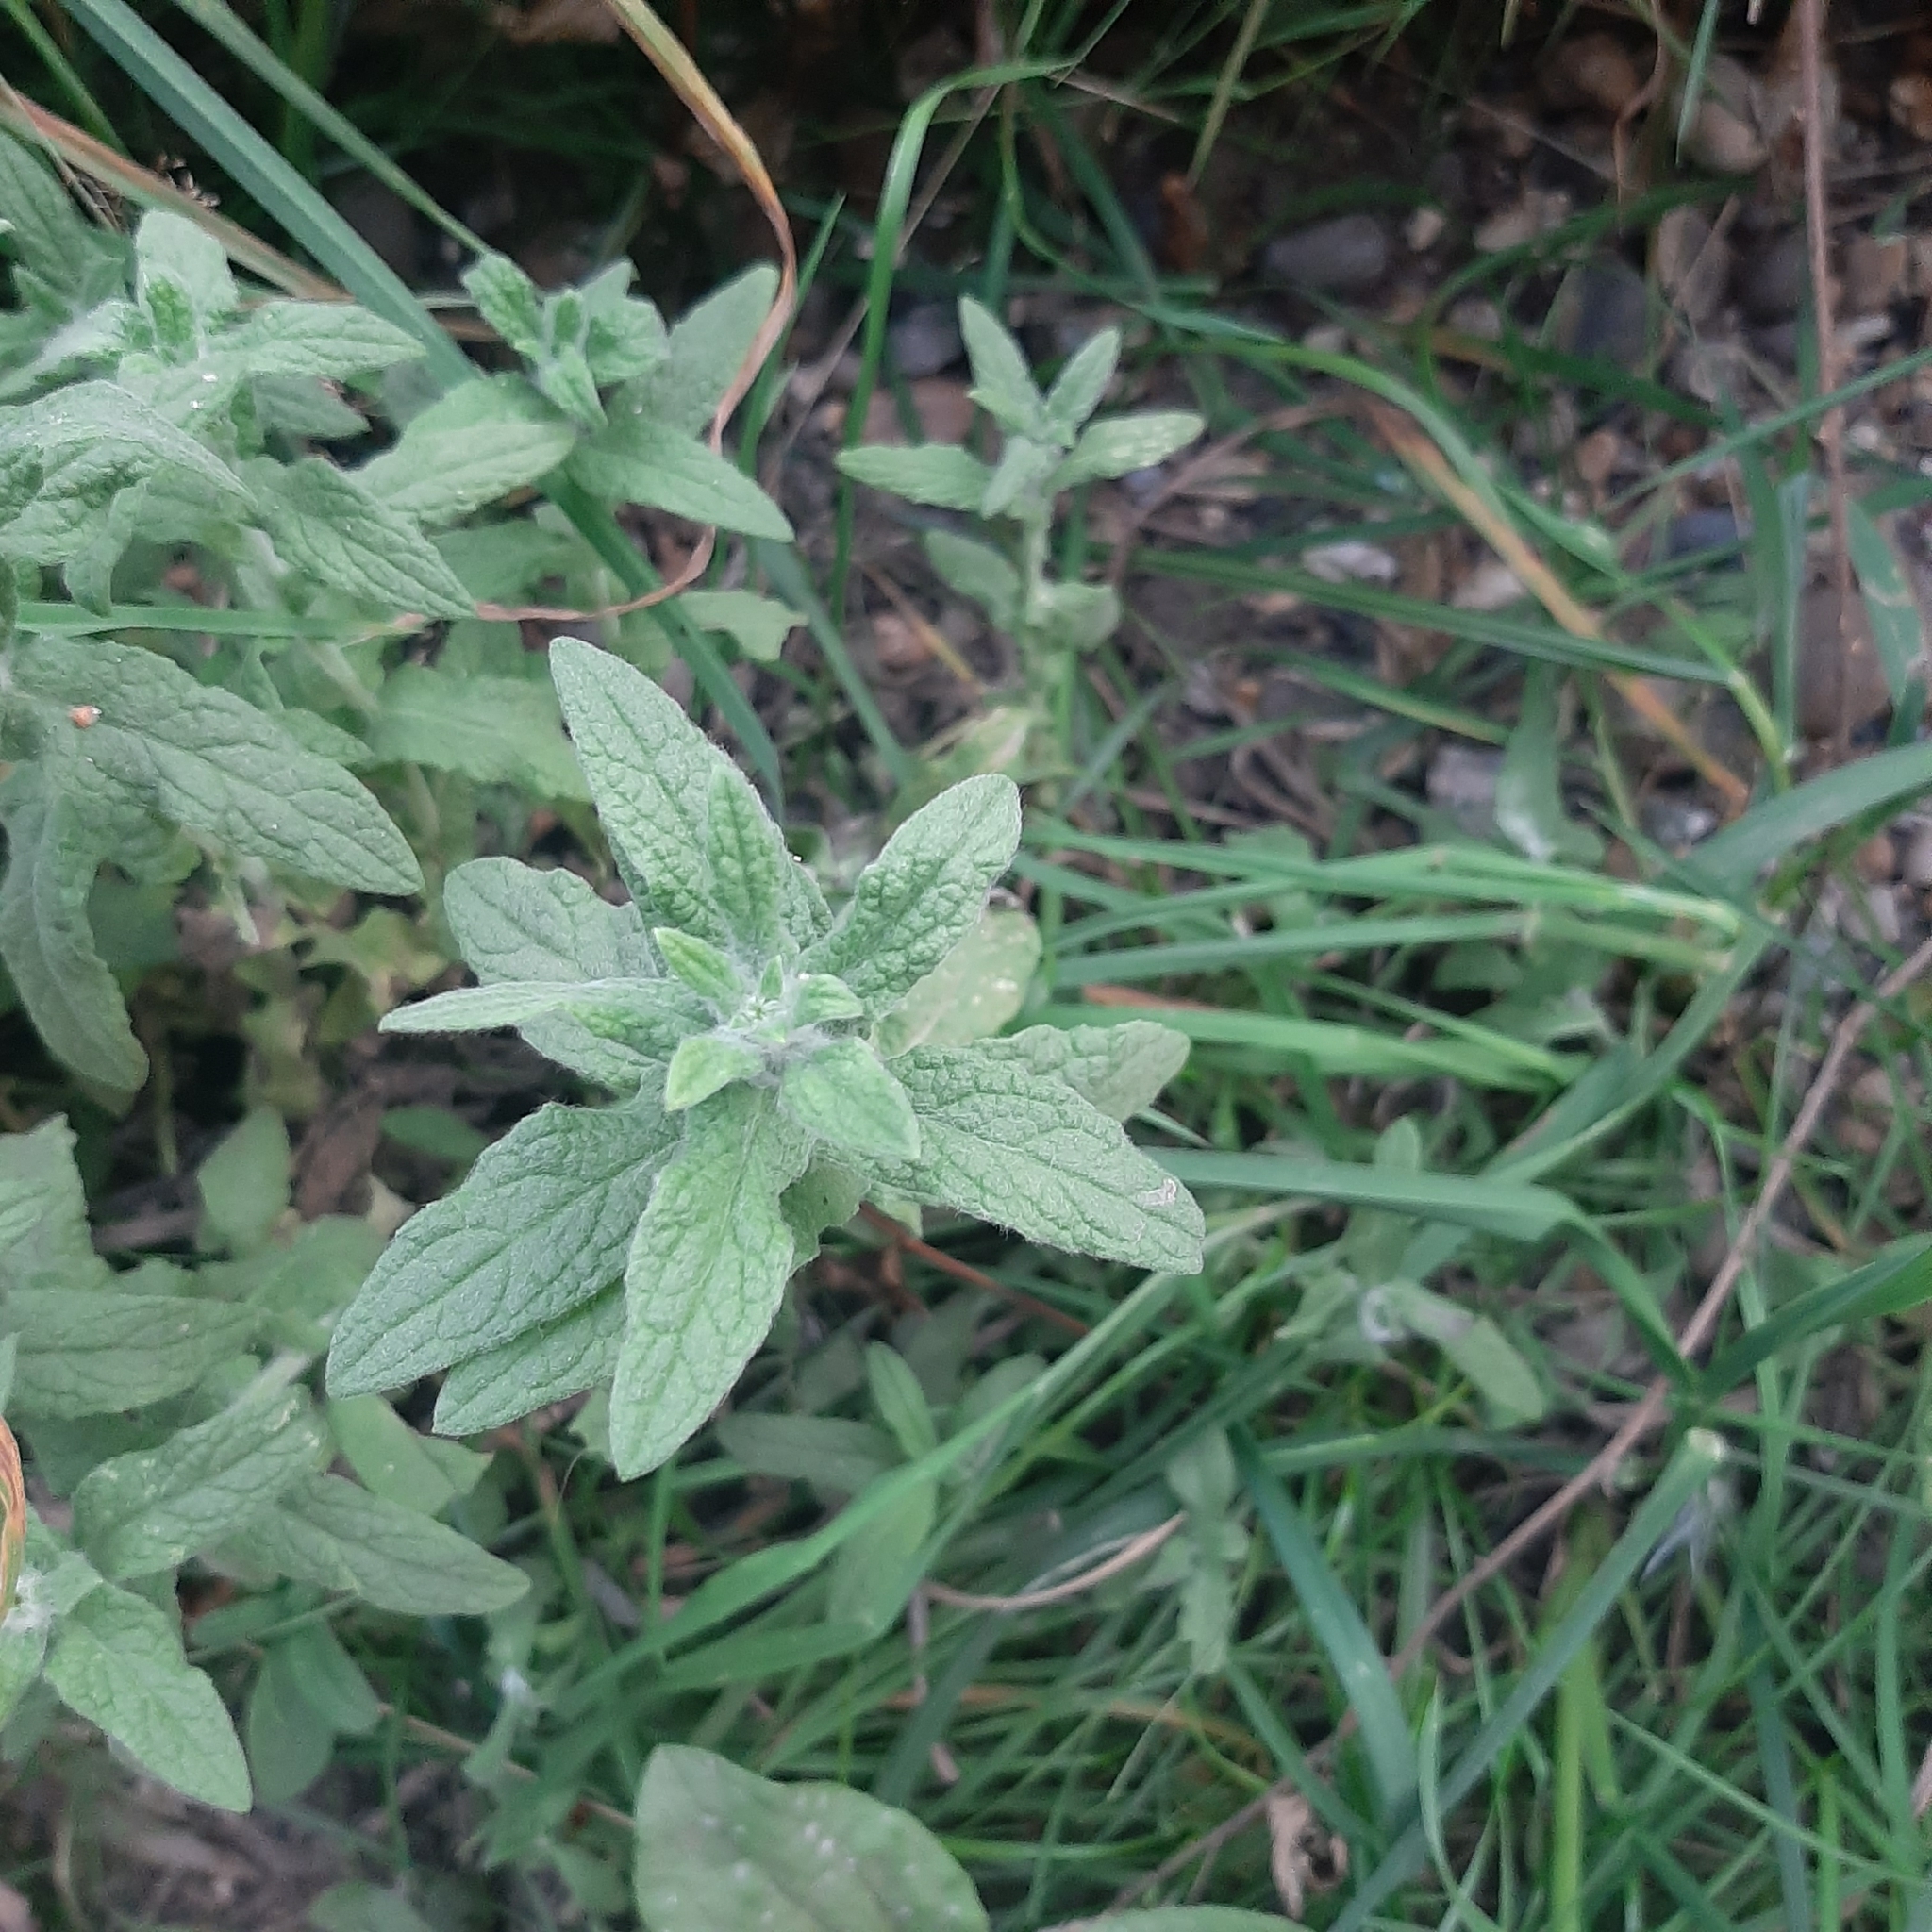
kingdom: Plantae
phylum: Tracheophyta
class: Magnoliopsida
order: Asterales
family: Asteraceae
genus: Pulicaria
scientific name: Pulicaria dysenterica
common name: Common fleabane
